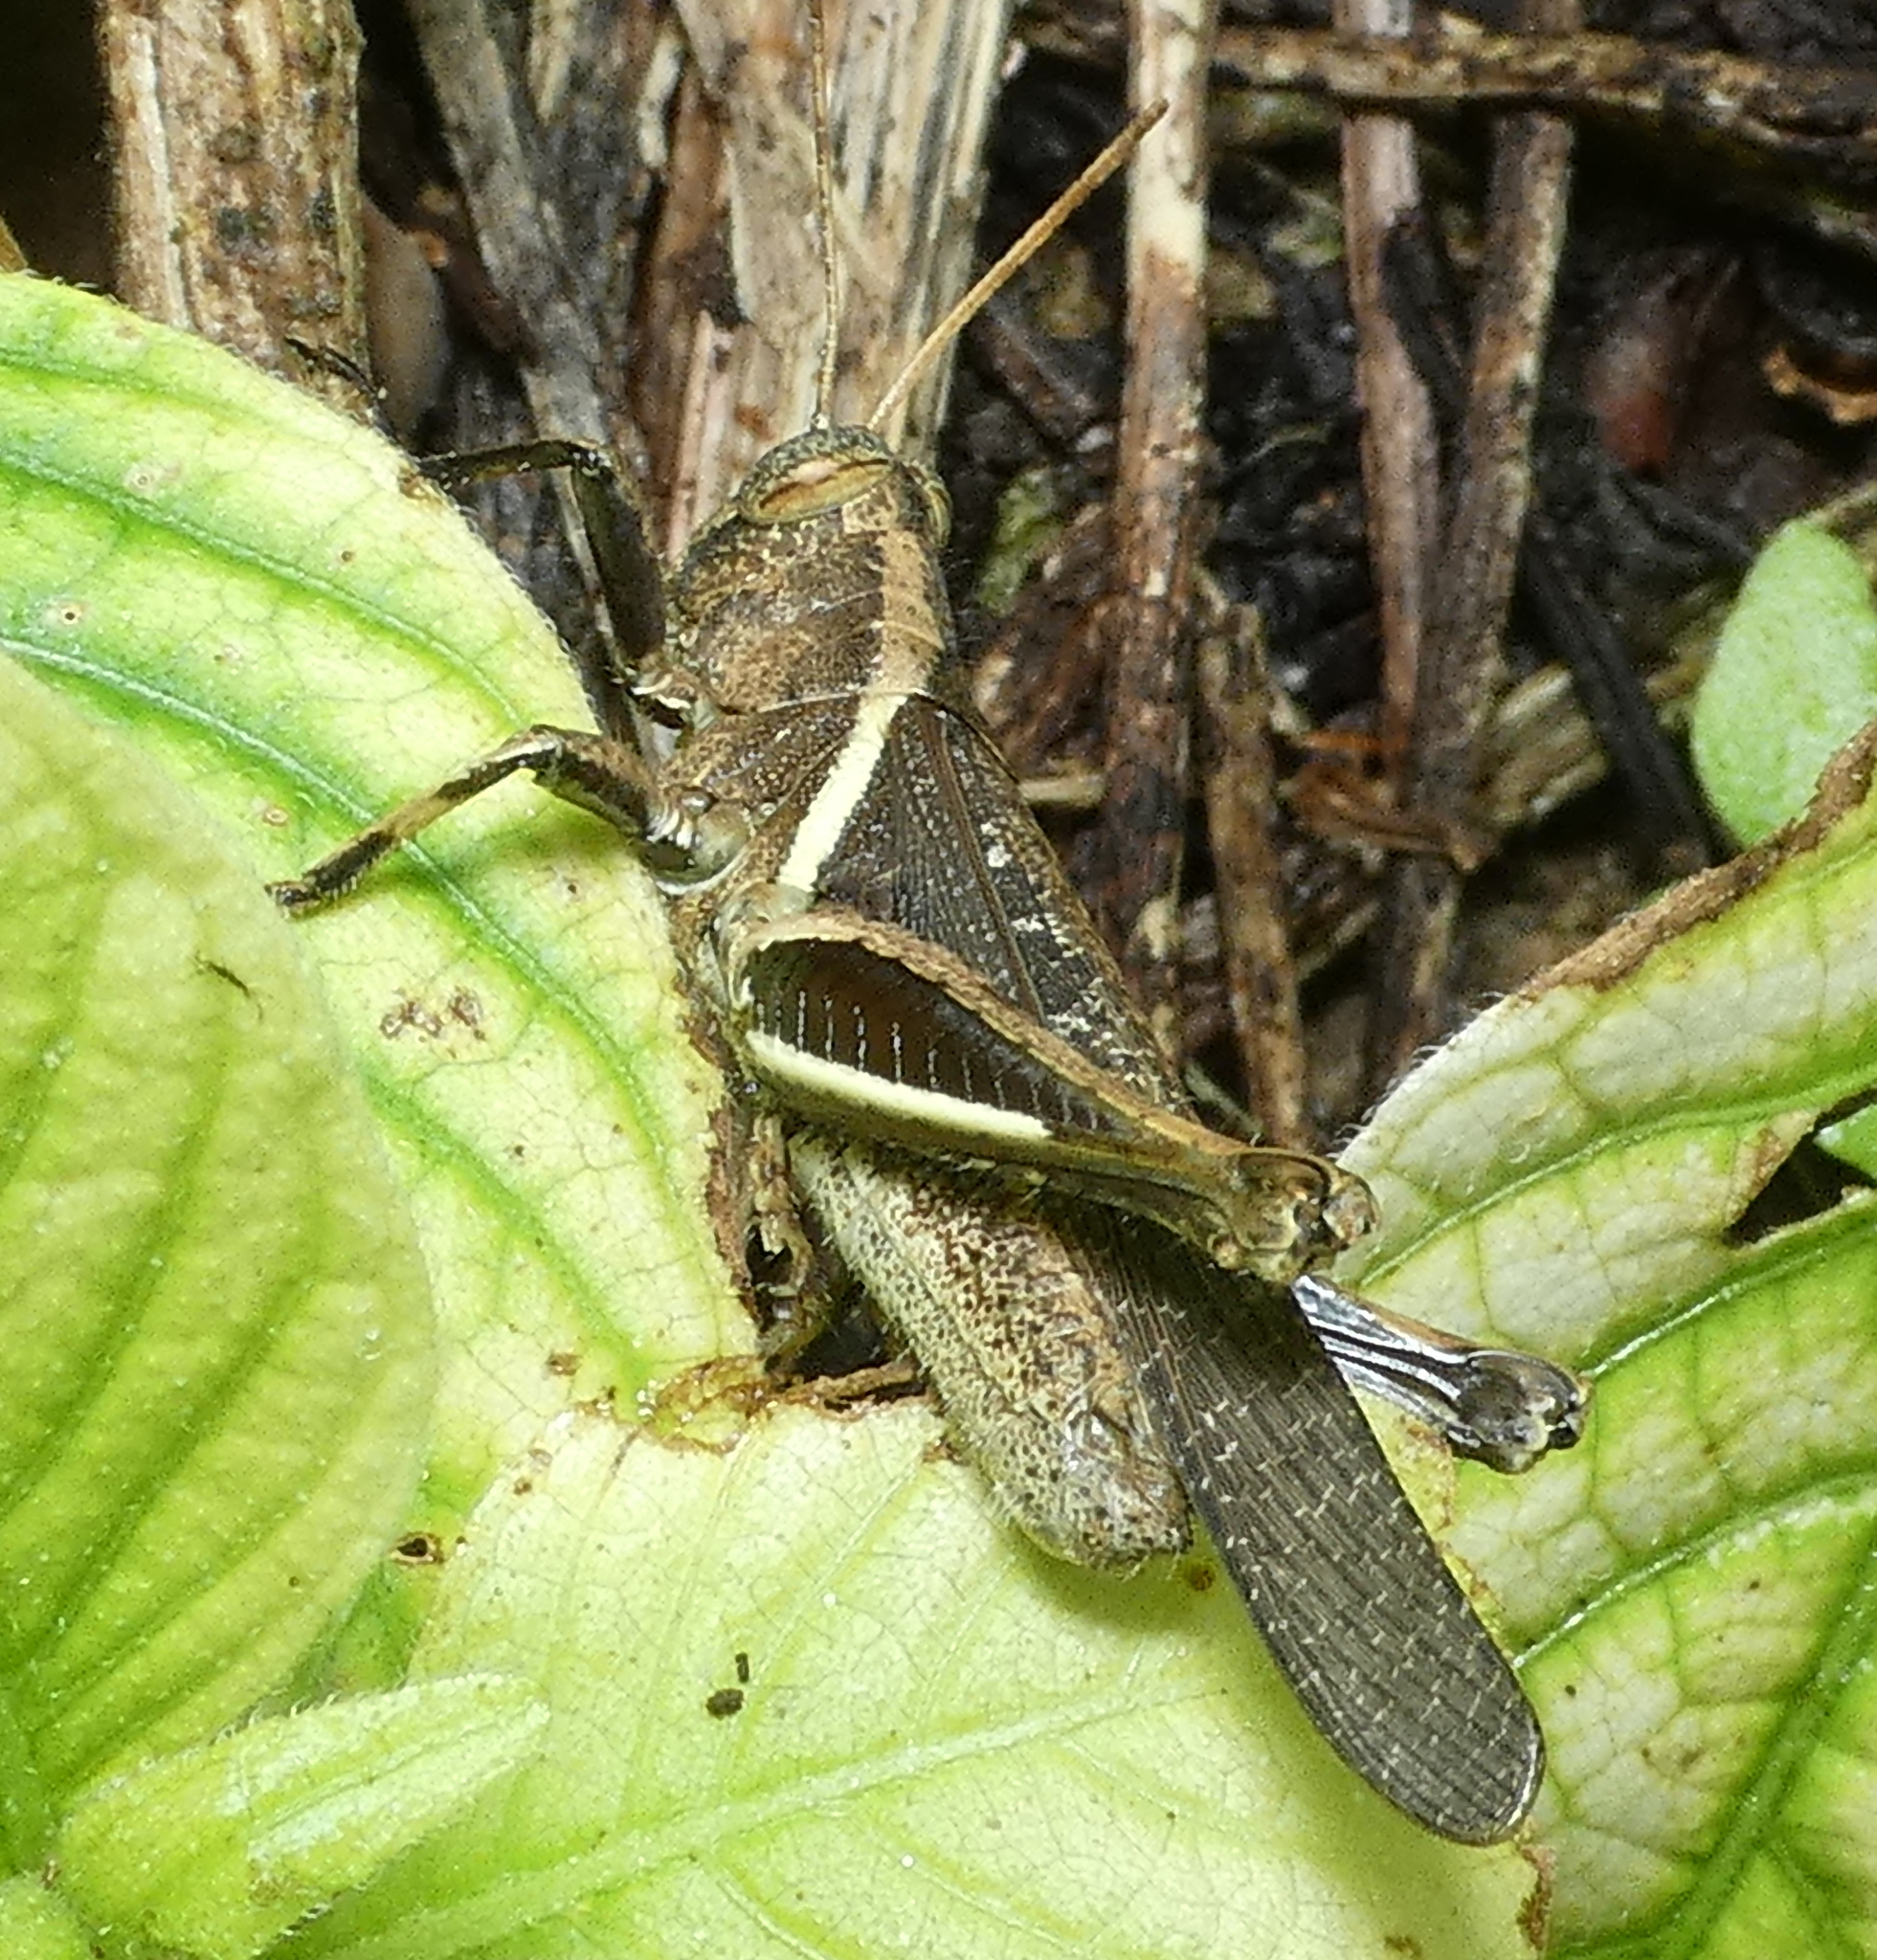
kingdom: Animalia
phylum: Arthropoda
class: Insecta
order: Orthoptera
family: Acrididae
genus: Abracris
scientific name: Abracris flavolineata
